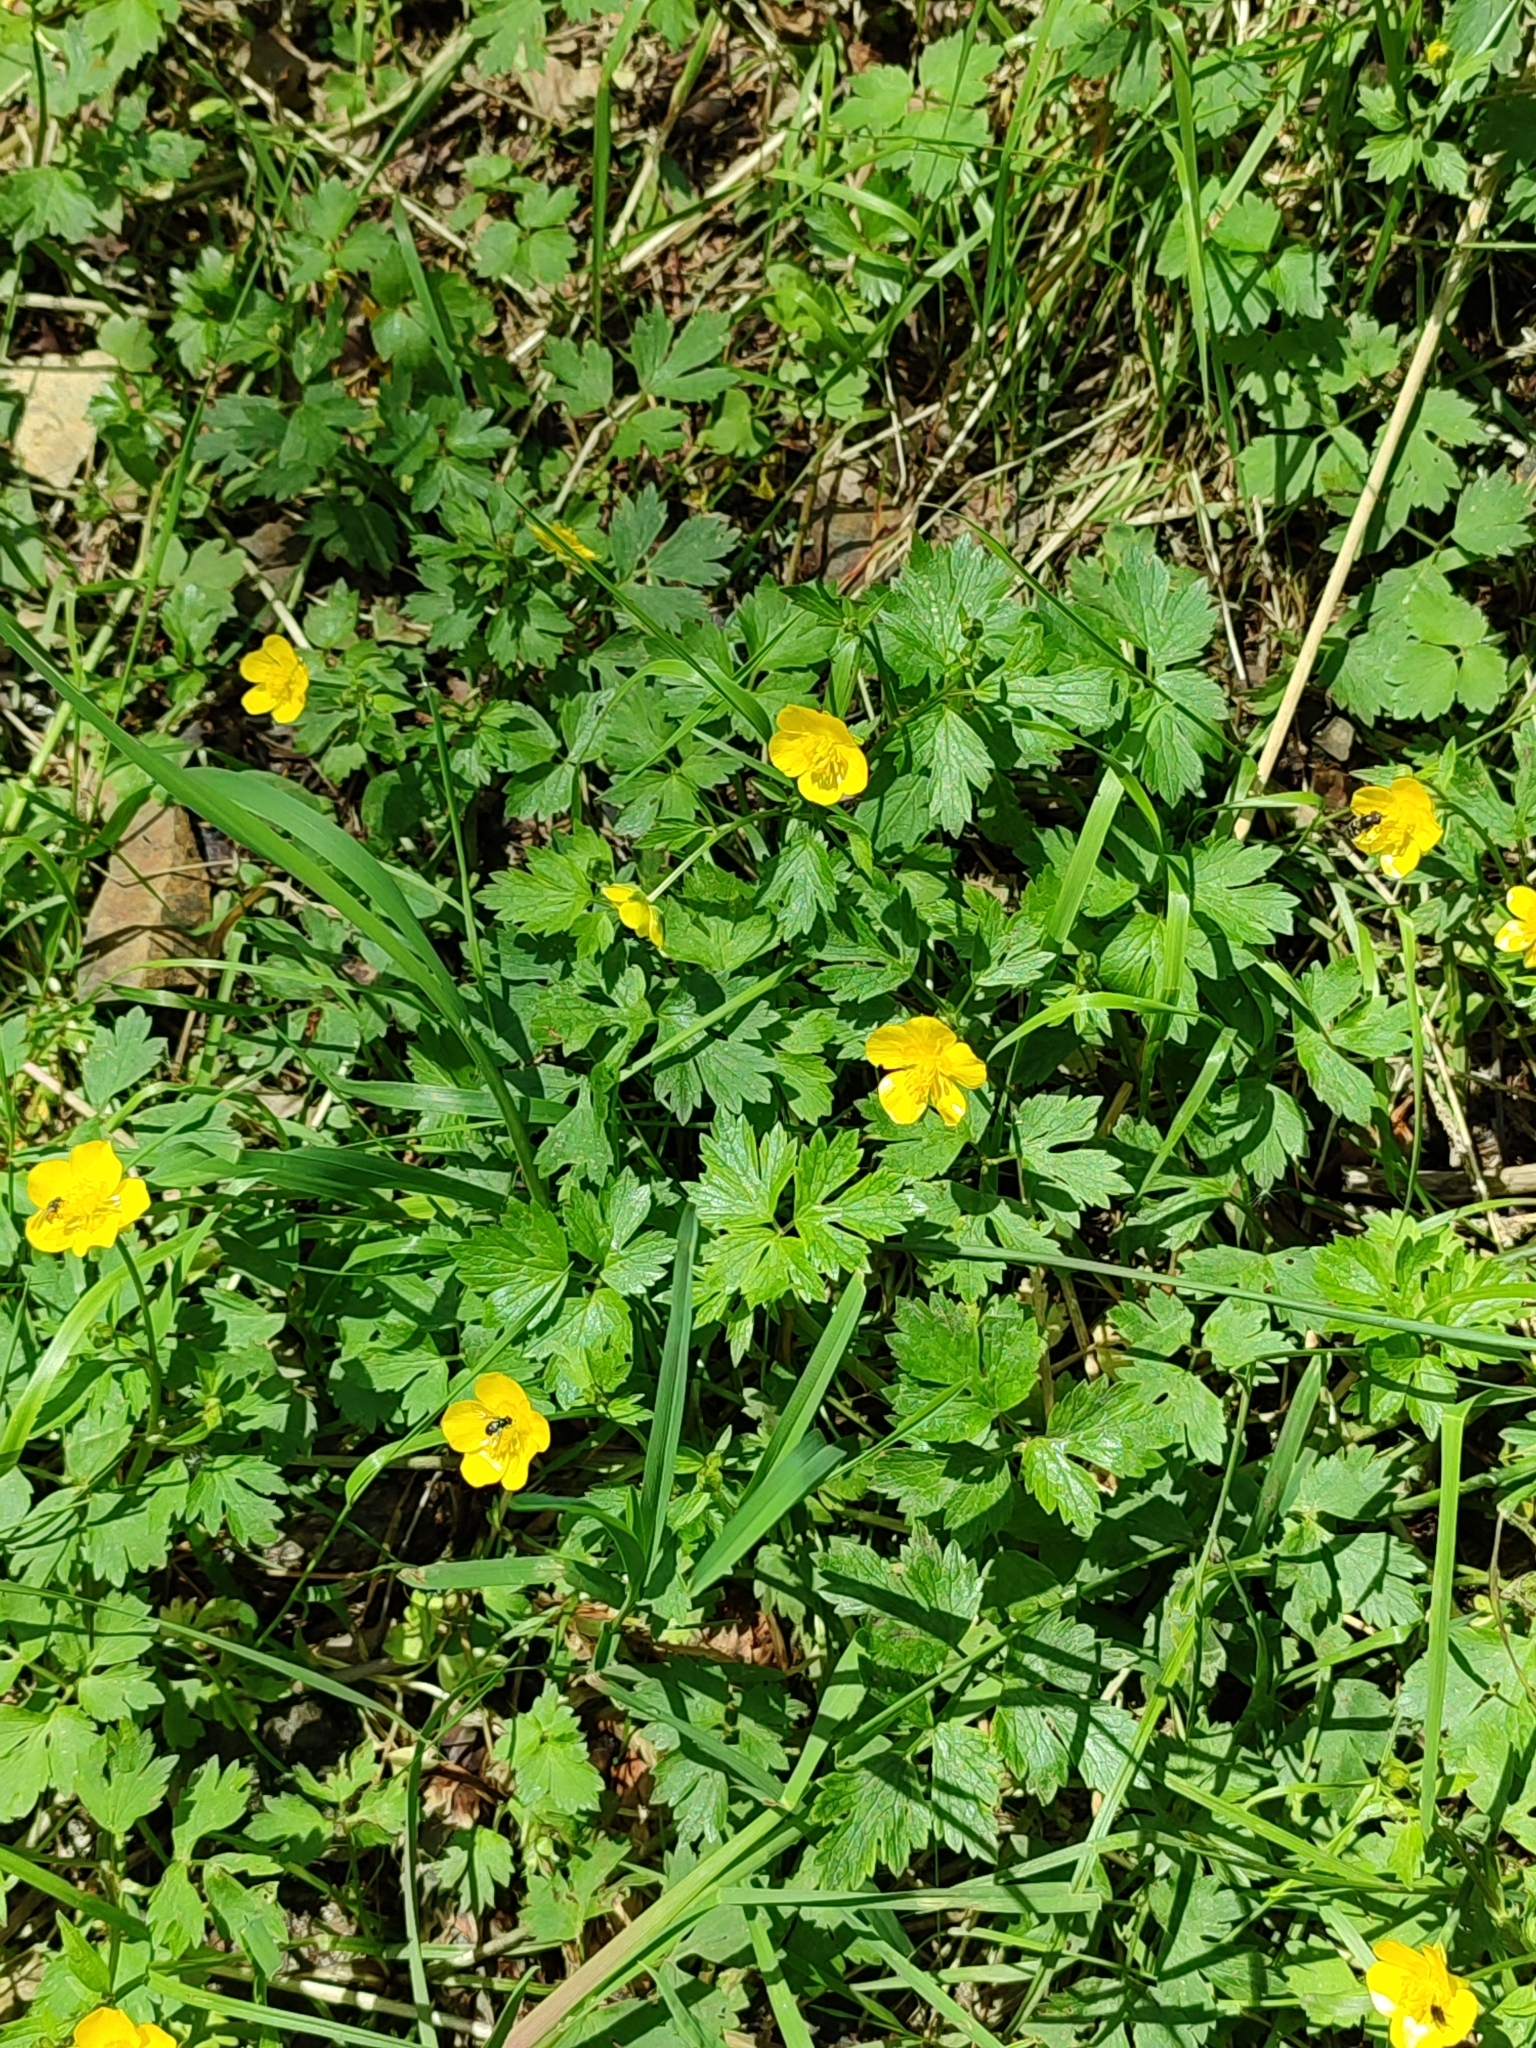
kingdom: Plantae
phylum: Tracheophyta
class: Magnoliopsida
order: Ranunculales
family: Ranunculaceae
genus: Ranunculus
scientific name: Ranunculus repens
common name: Creeping buttercup
